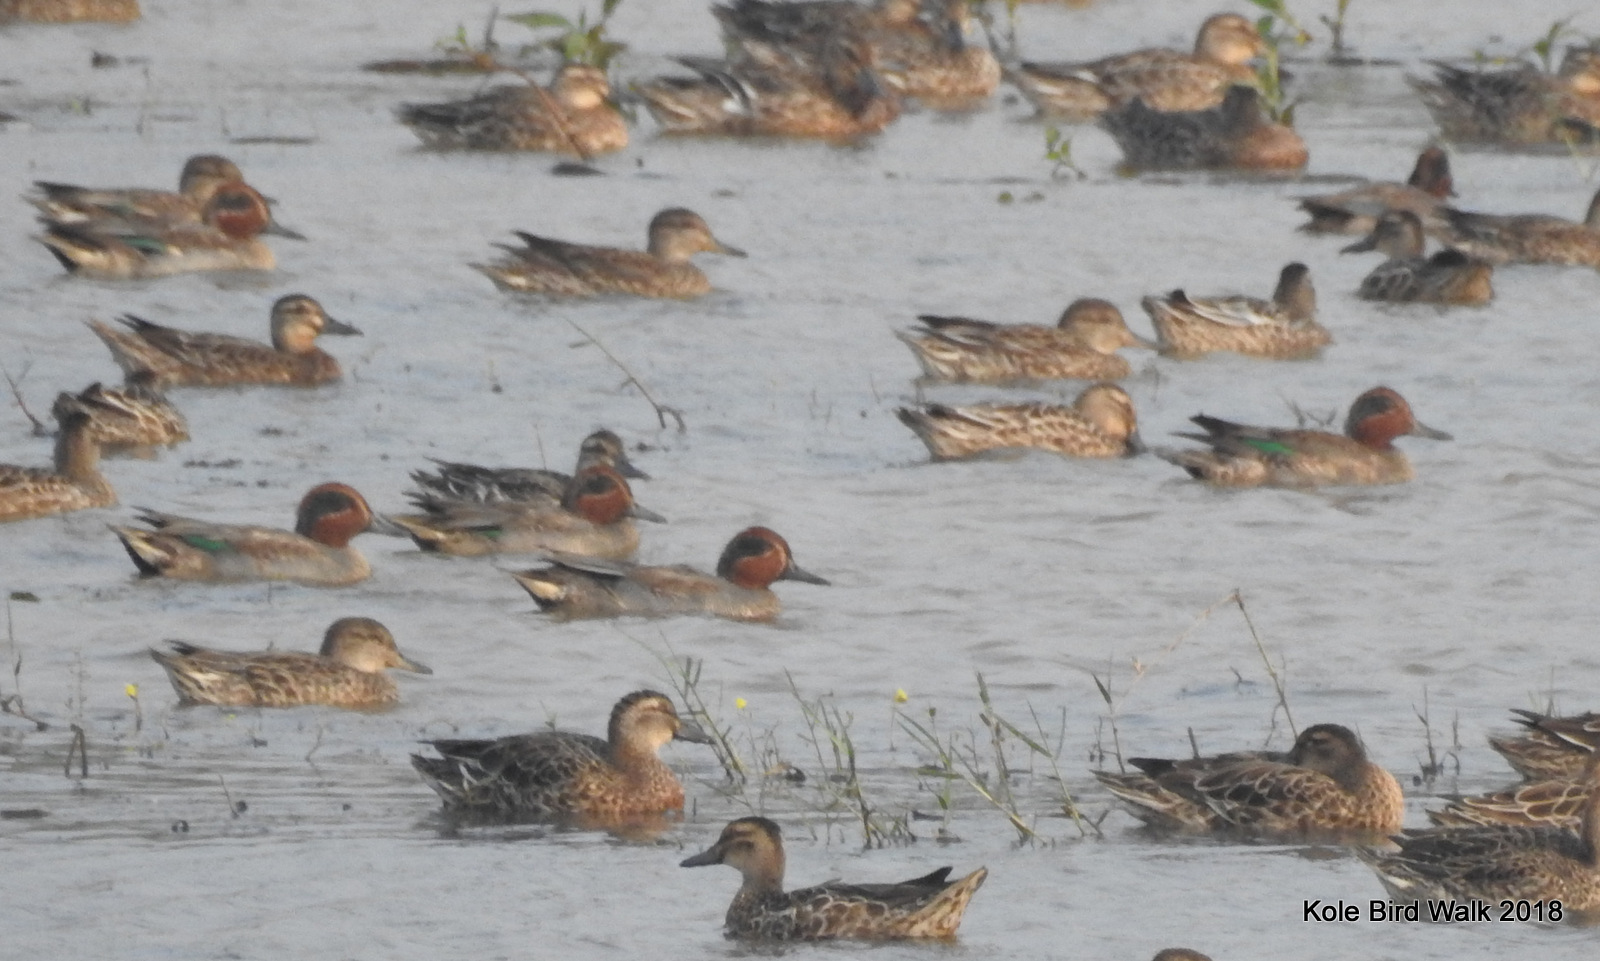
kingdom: Animalia
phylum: Chordata
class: Aves
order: Anseriformes
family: Anatidae
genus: Anas
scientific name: Anas crecca
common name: Eurasian teal
